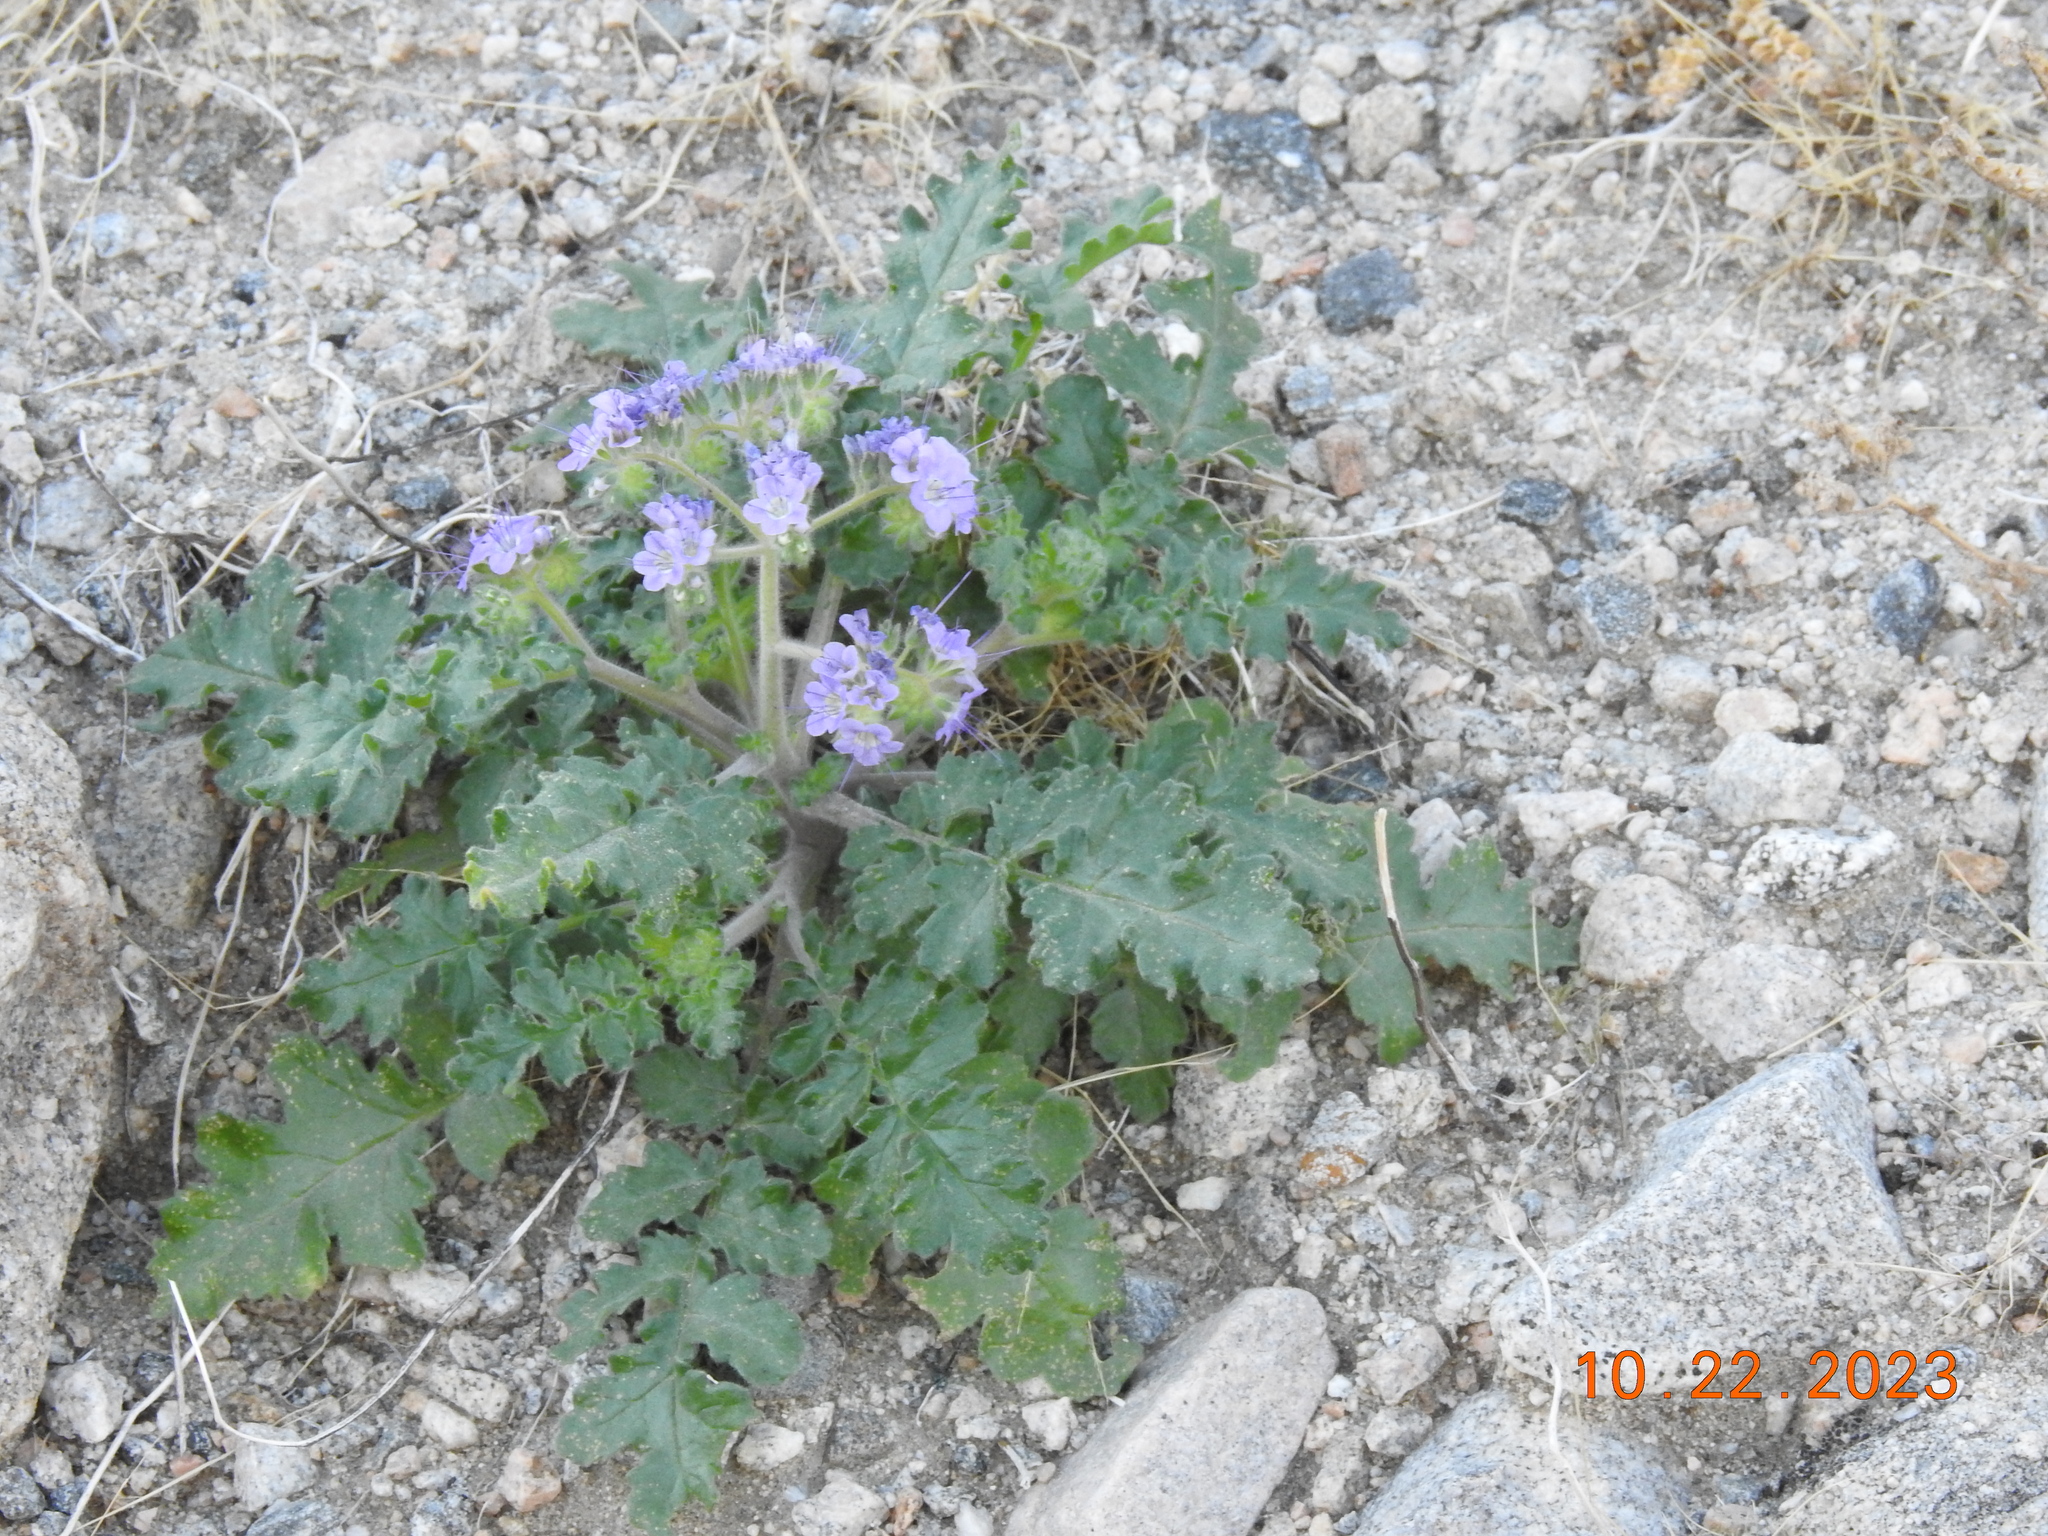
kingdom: Plantae
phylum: Tracheophyta
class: Magnoliopsida
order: Boraginales
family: Hydrophyllaceae
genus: Phacelia
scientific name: Phacelia crenulata
